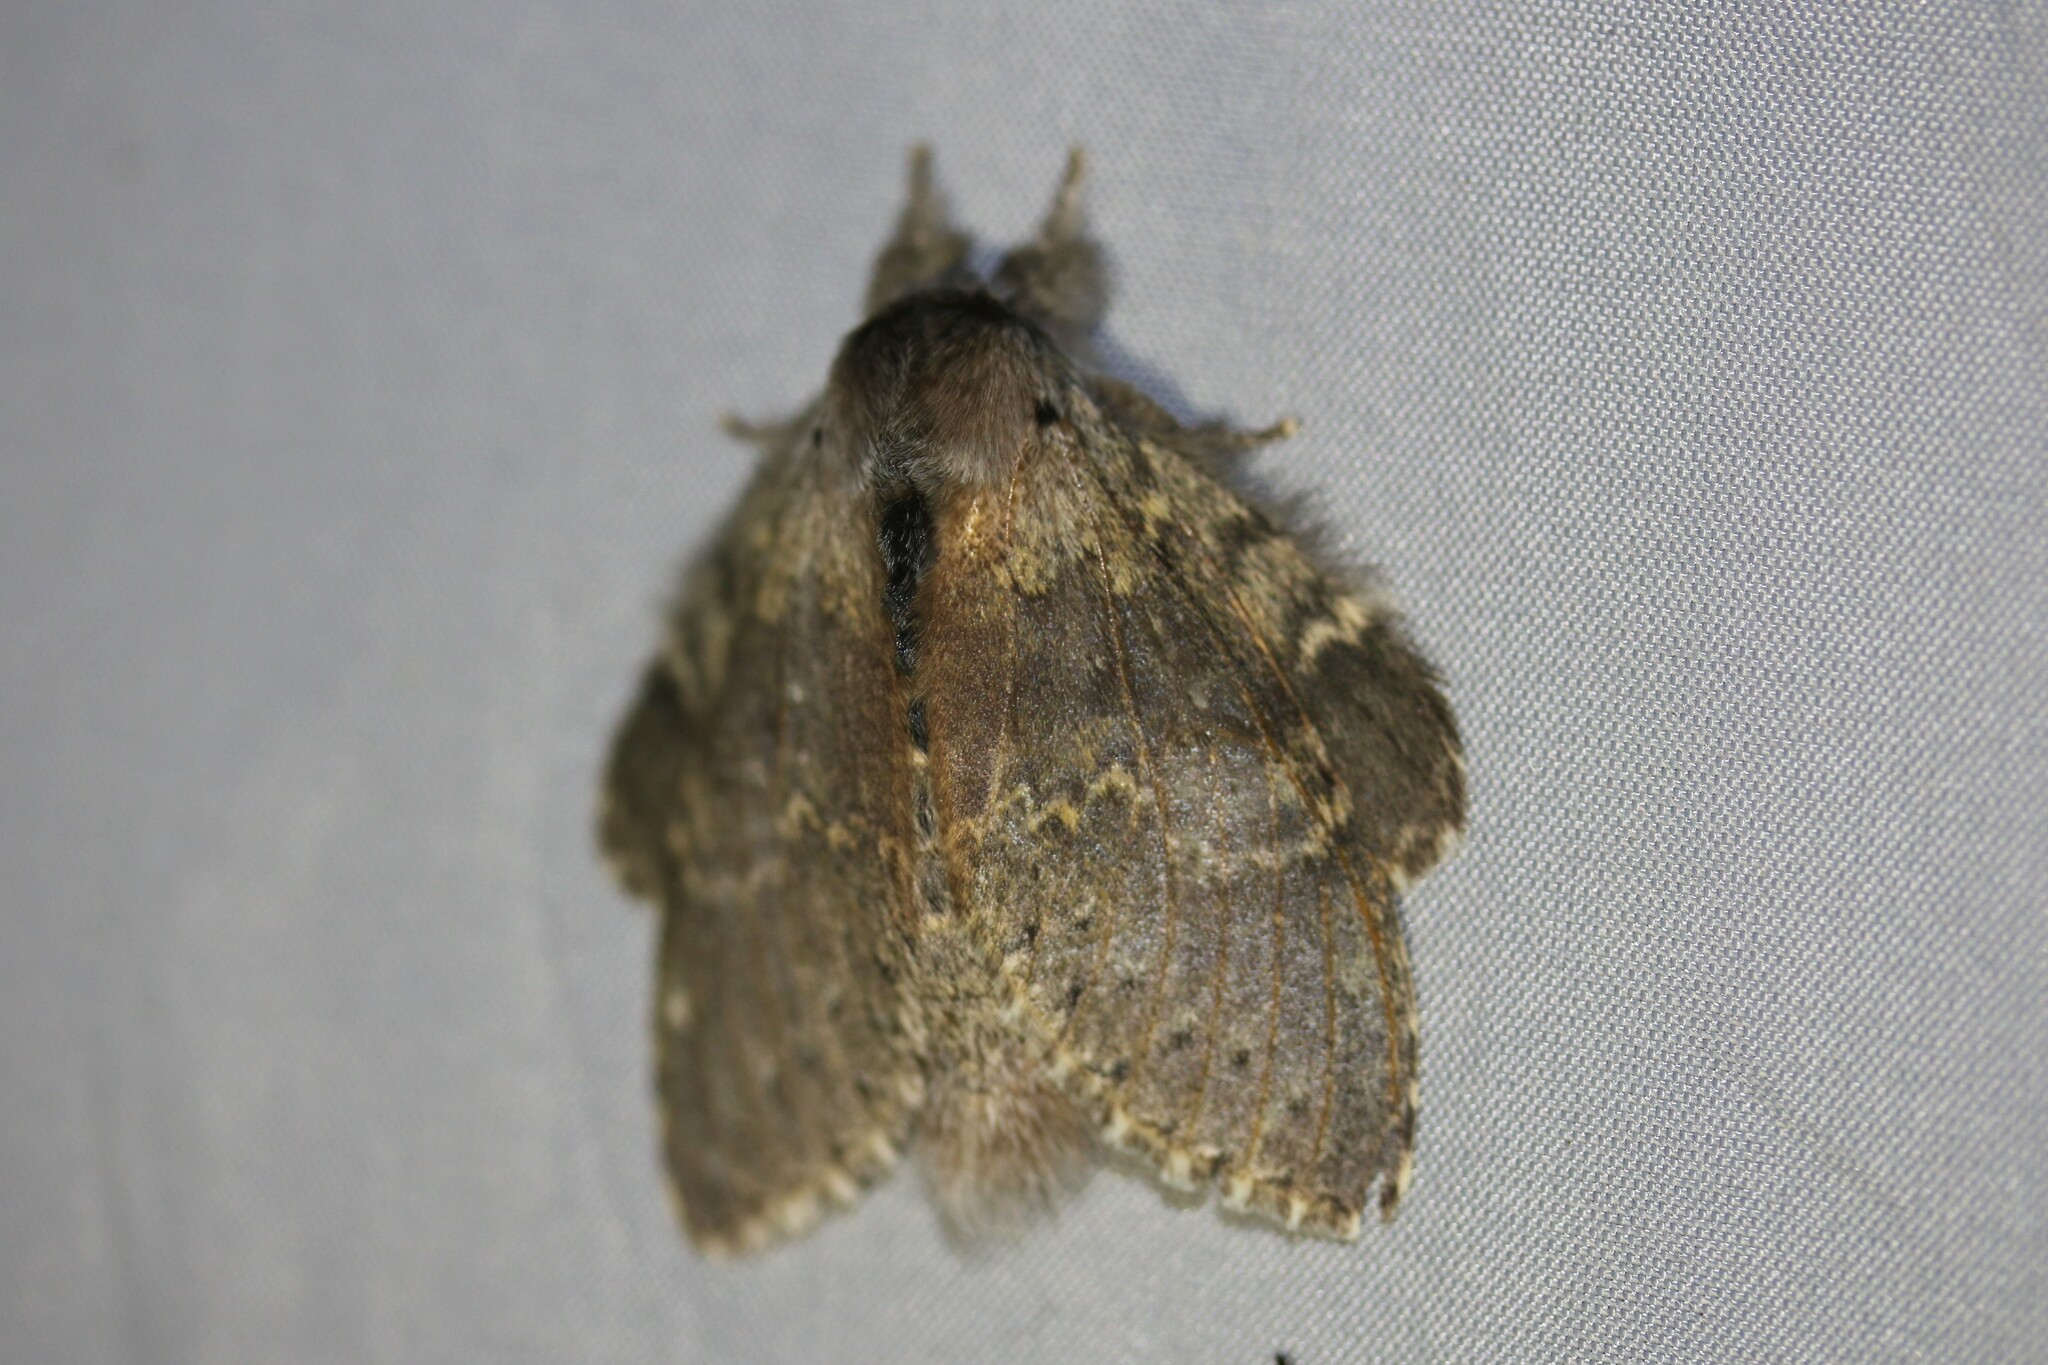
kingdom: Animalia
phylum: Arthropoda
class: Insecta
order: Lepidoptera
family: Notodontidae
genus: Stauropus
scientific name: Stauropus fagi
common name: Lobster moth
